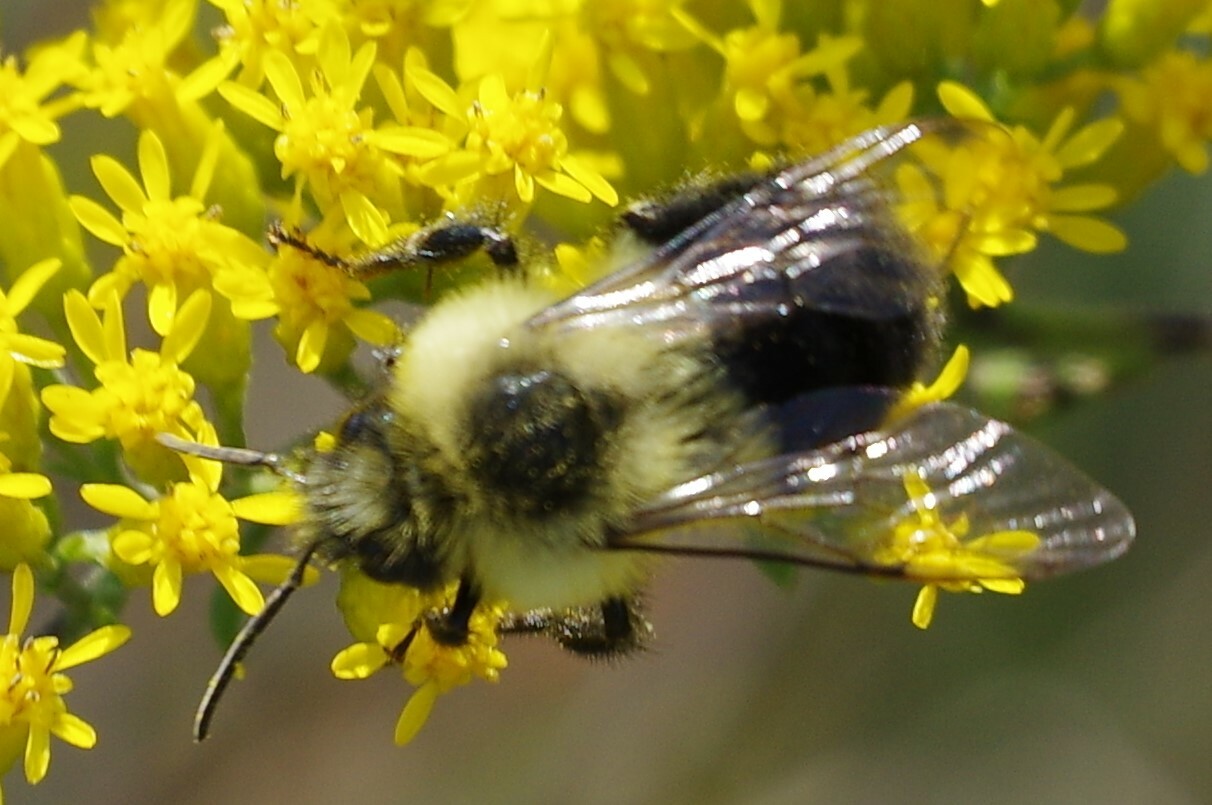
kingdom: Animalia
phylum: Arthropoda
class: Insecta
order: Hymenoptera
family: Apidae
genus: Bombus
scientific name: Bombus impatiens
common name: Common eastern bumble bee
